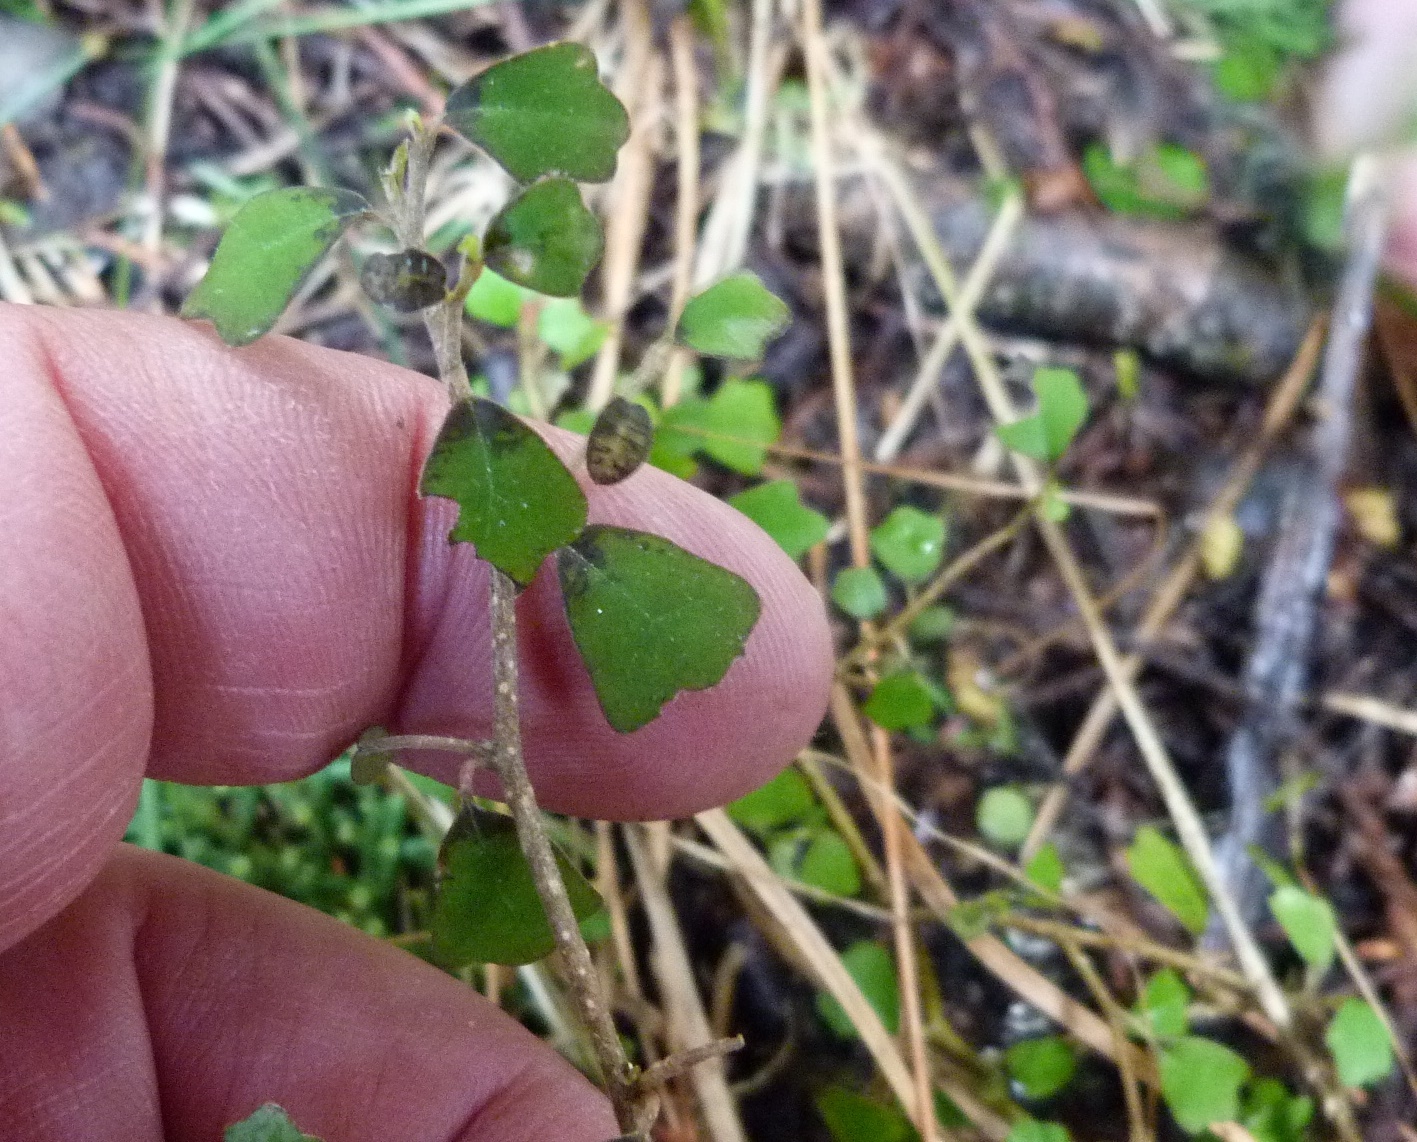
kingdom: Plantae
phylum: Tracheophyta
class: Magnoliopsida
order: Apiales
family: Pennantiaceae
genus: Pennantia
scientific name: Pennantia corymbosa
